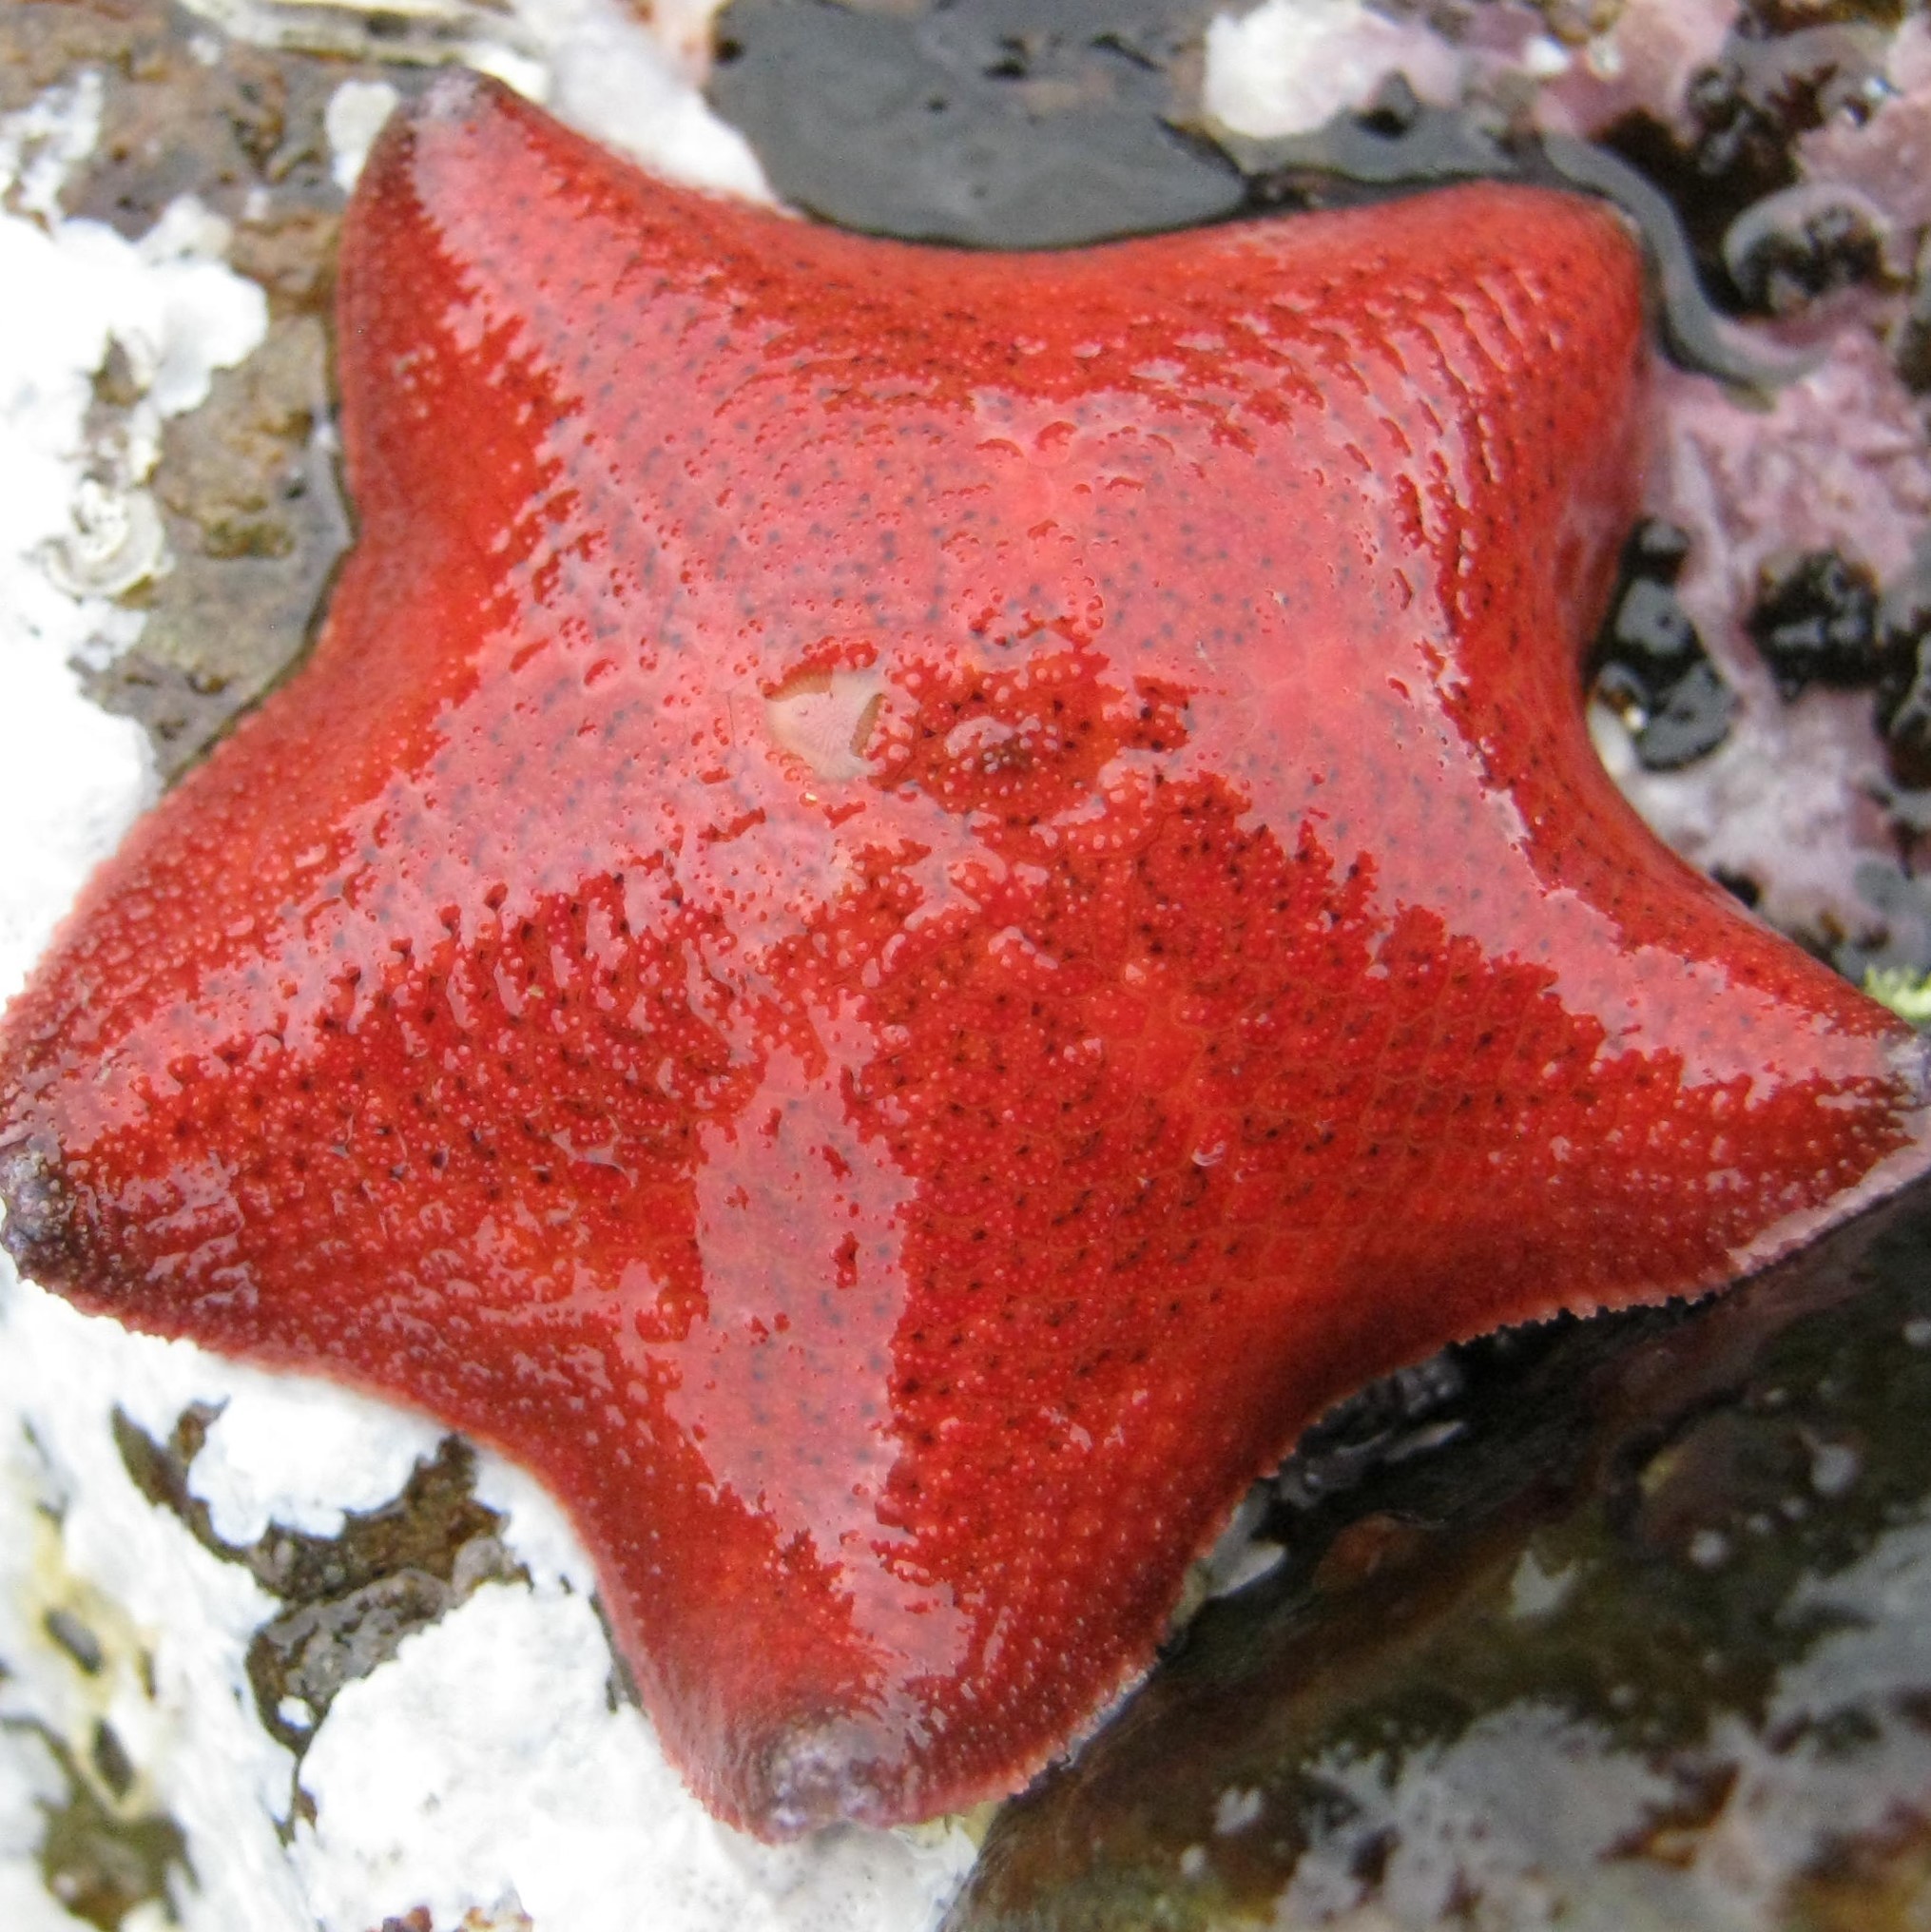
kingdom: Animalia
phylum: Echinodermata
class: Asteroidea
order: Valvatida
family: Asterinidae
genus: Patiriella
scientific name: Patiriella regularis
